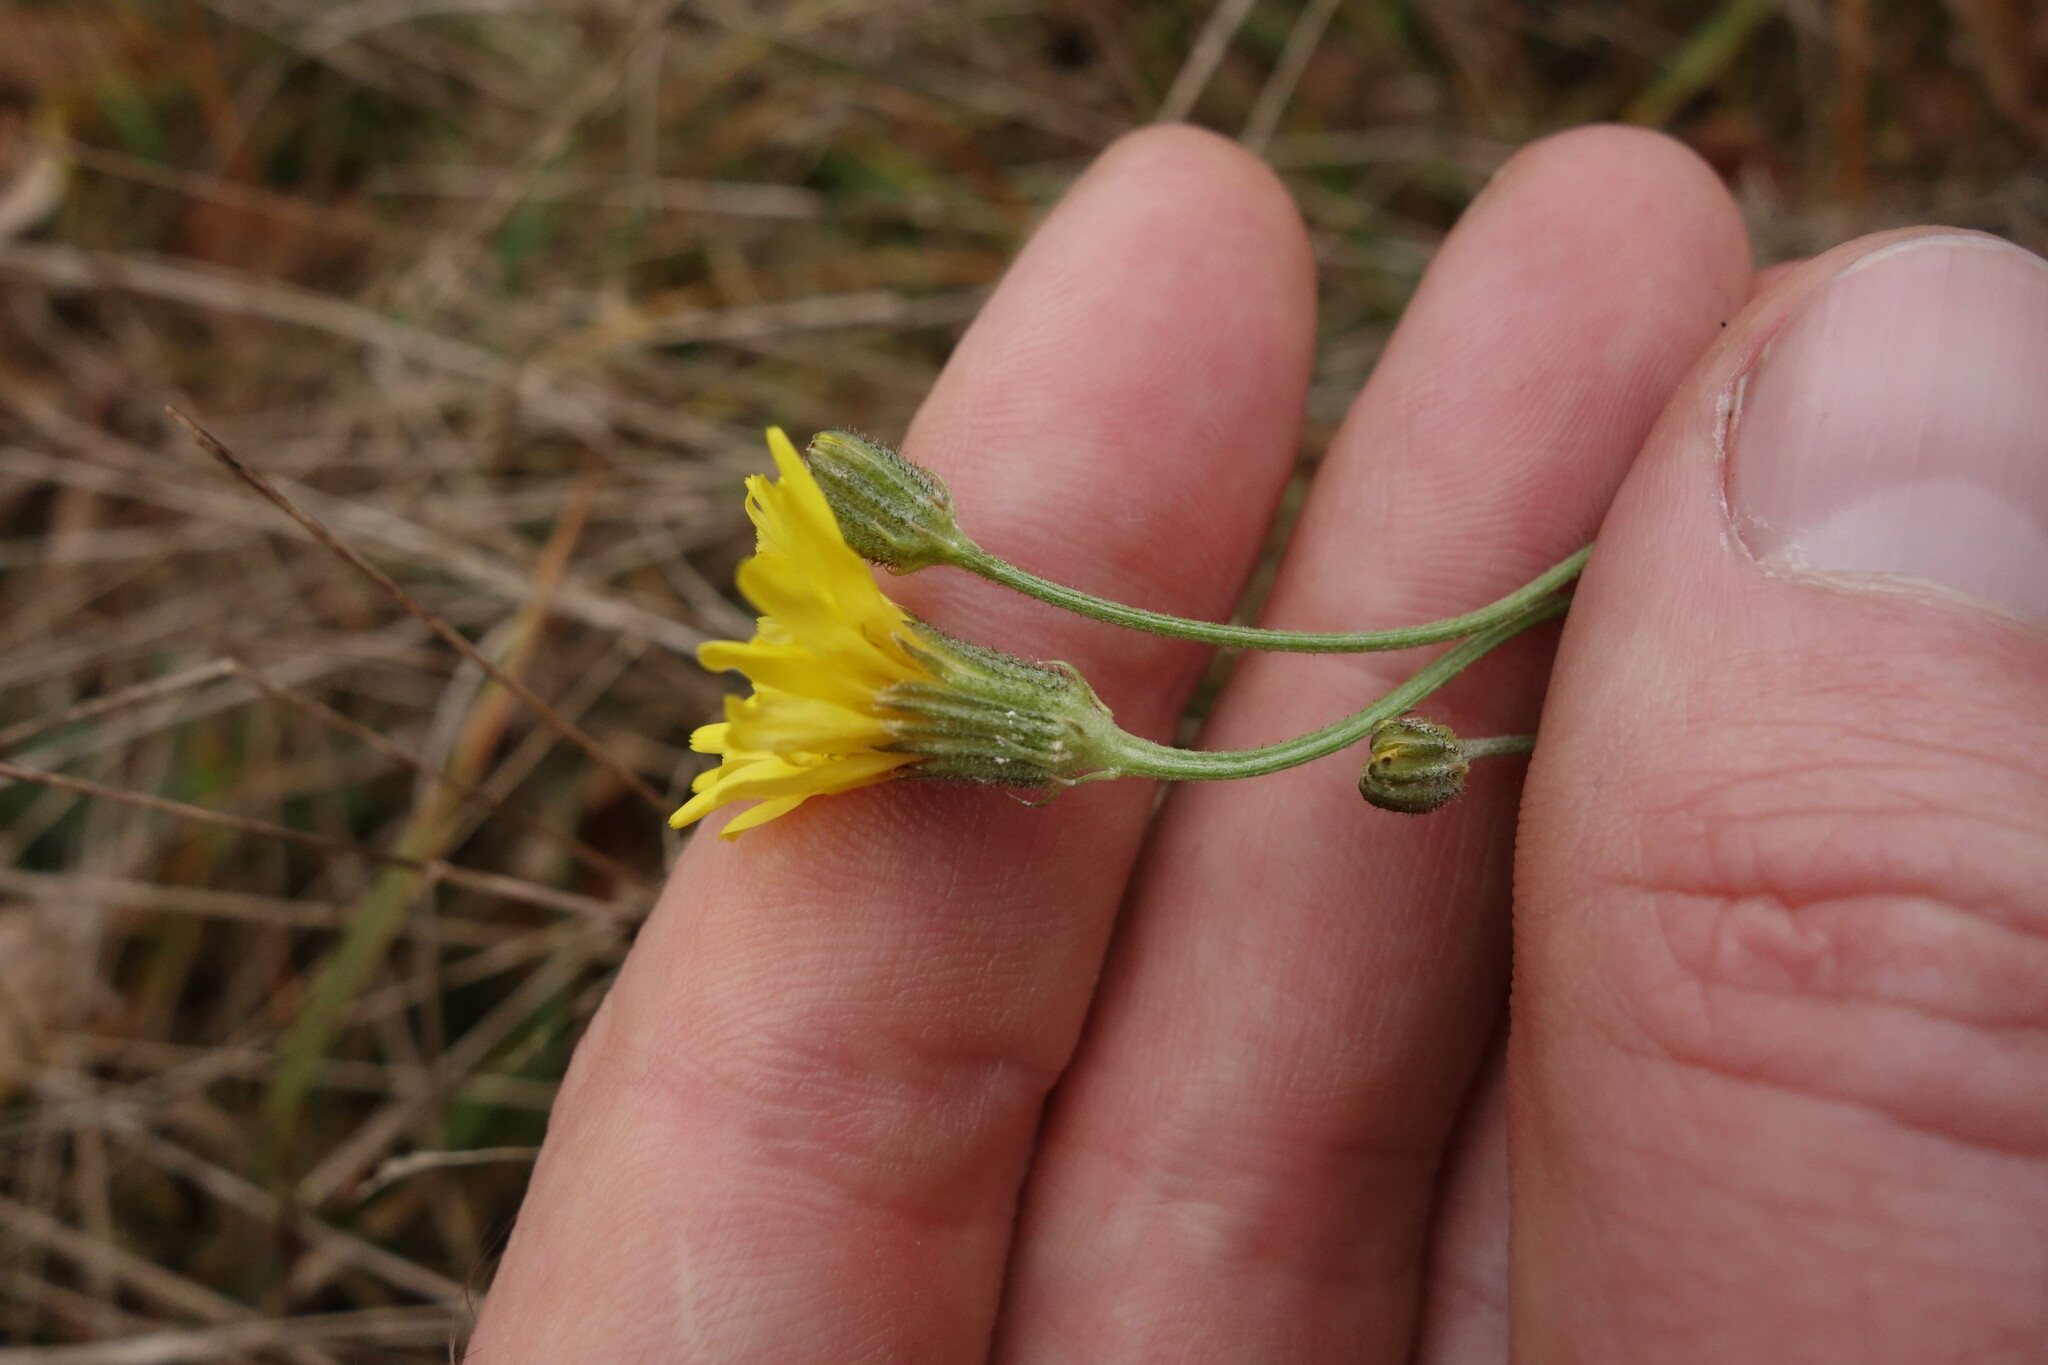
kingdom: Plantae
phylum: Tracheophyta
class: Magnoliopsida
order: Asterales
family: Asteraceae
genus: Crepis
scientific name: Crepis tectorum
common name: Narrow-leaved hawk's-beard
